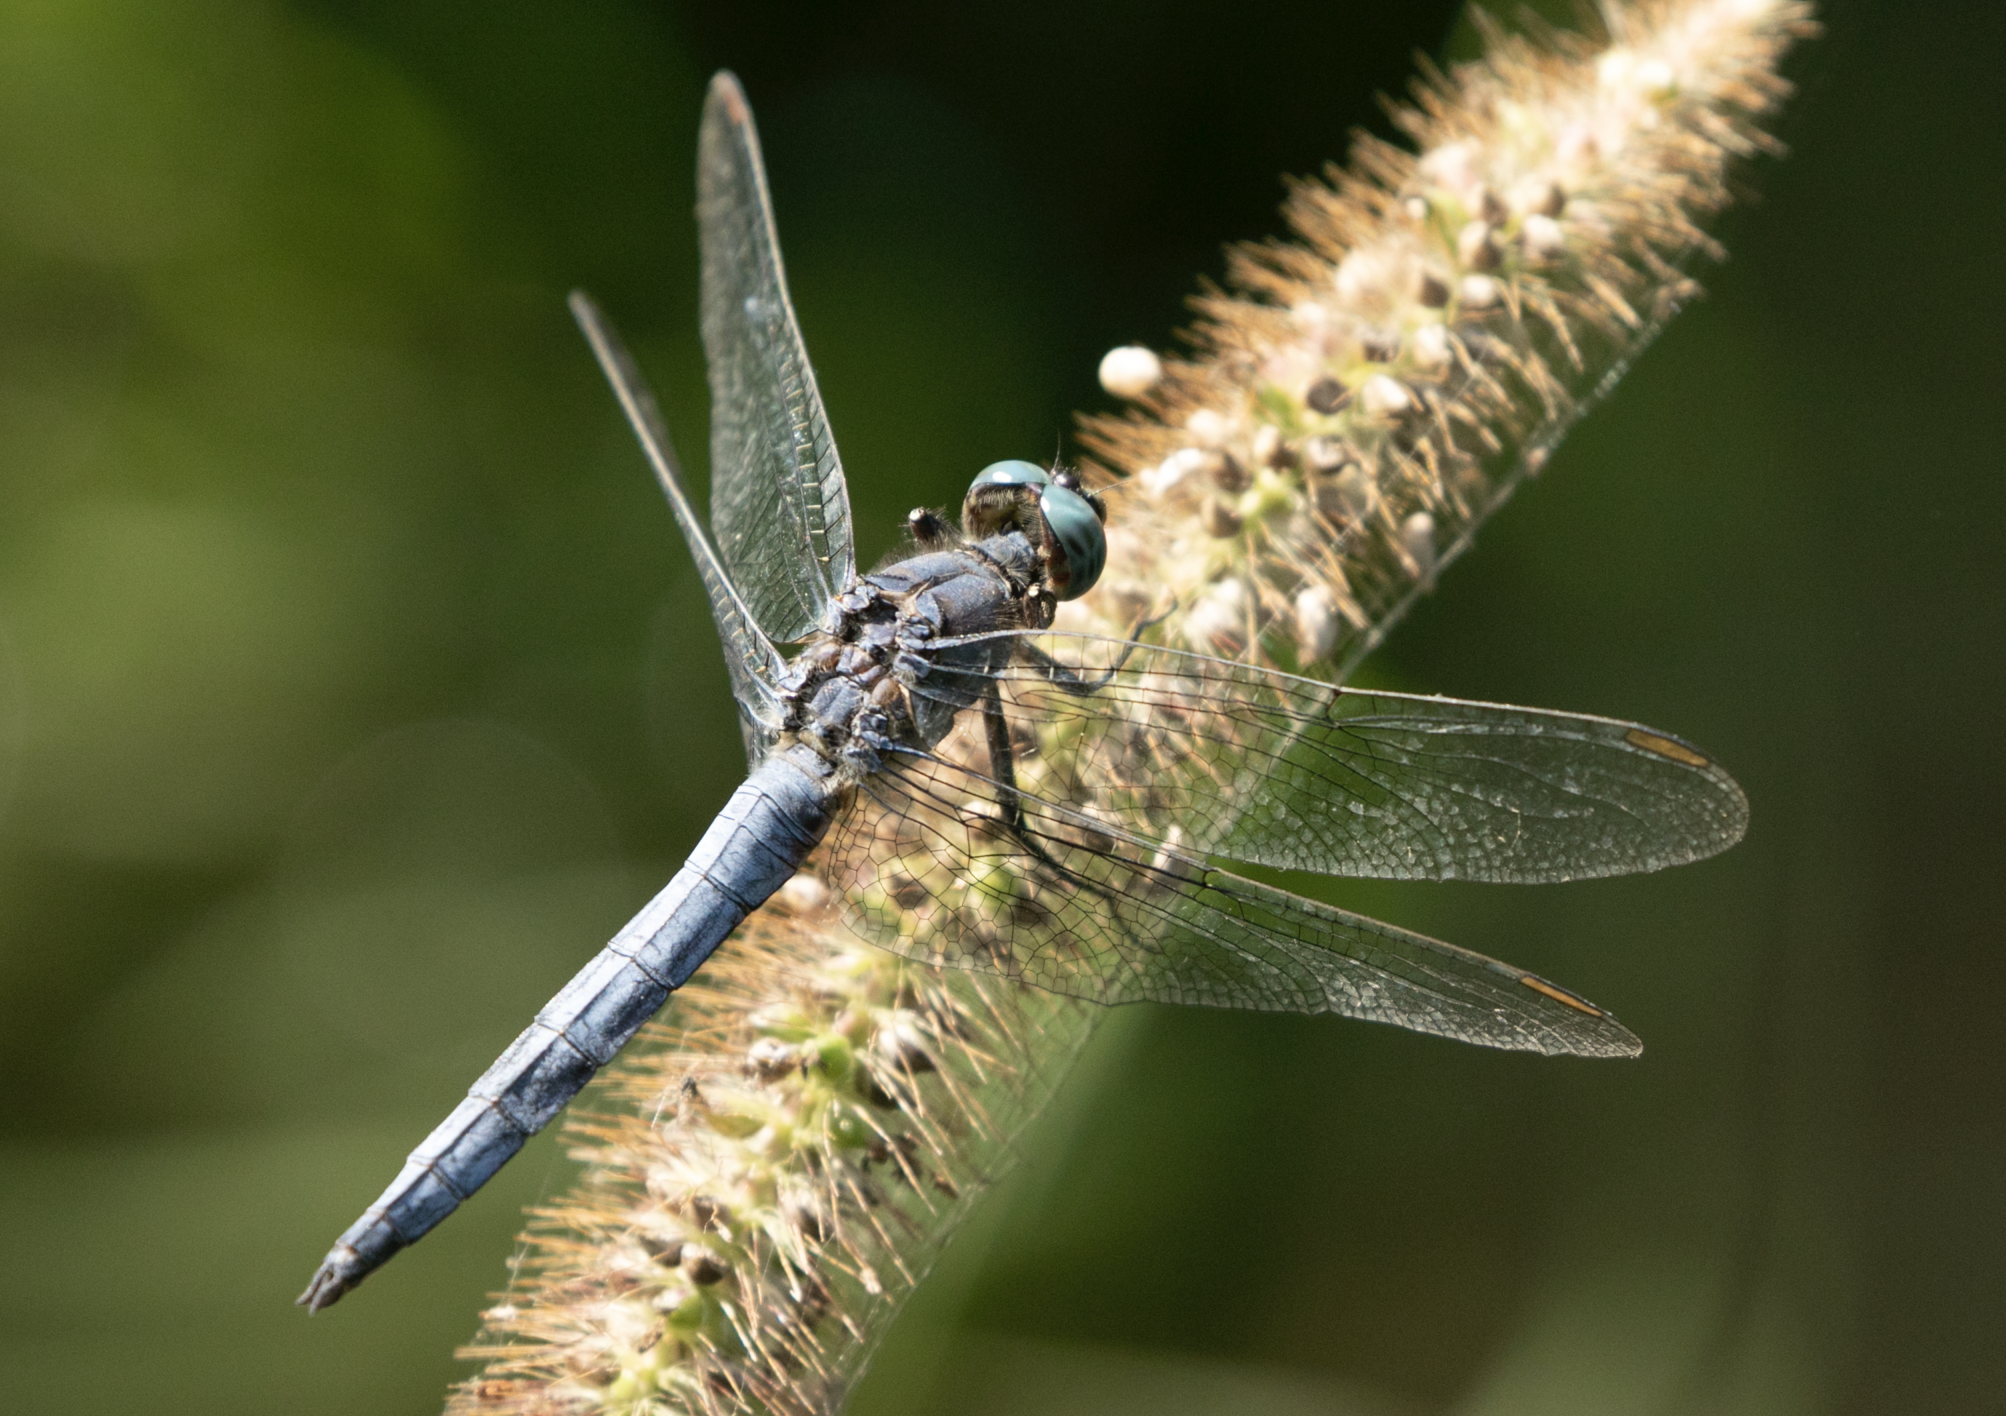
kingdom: Animalia
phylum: Arthropoda
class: Insecta
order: Odonata
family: Libellulidae
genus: Orthetrum
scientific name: Orthetrum coerulescens
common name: Keeled skimmer
